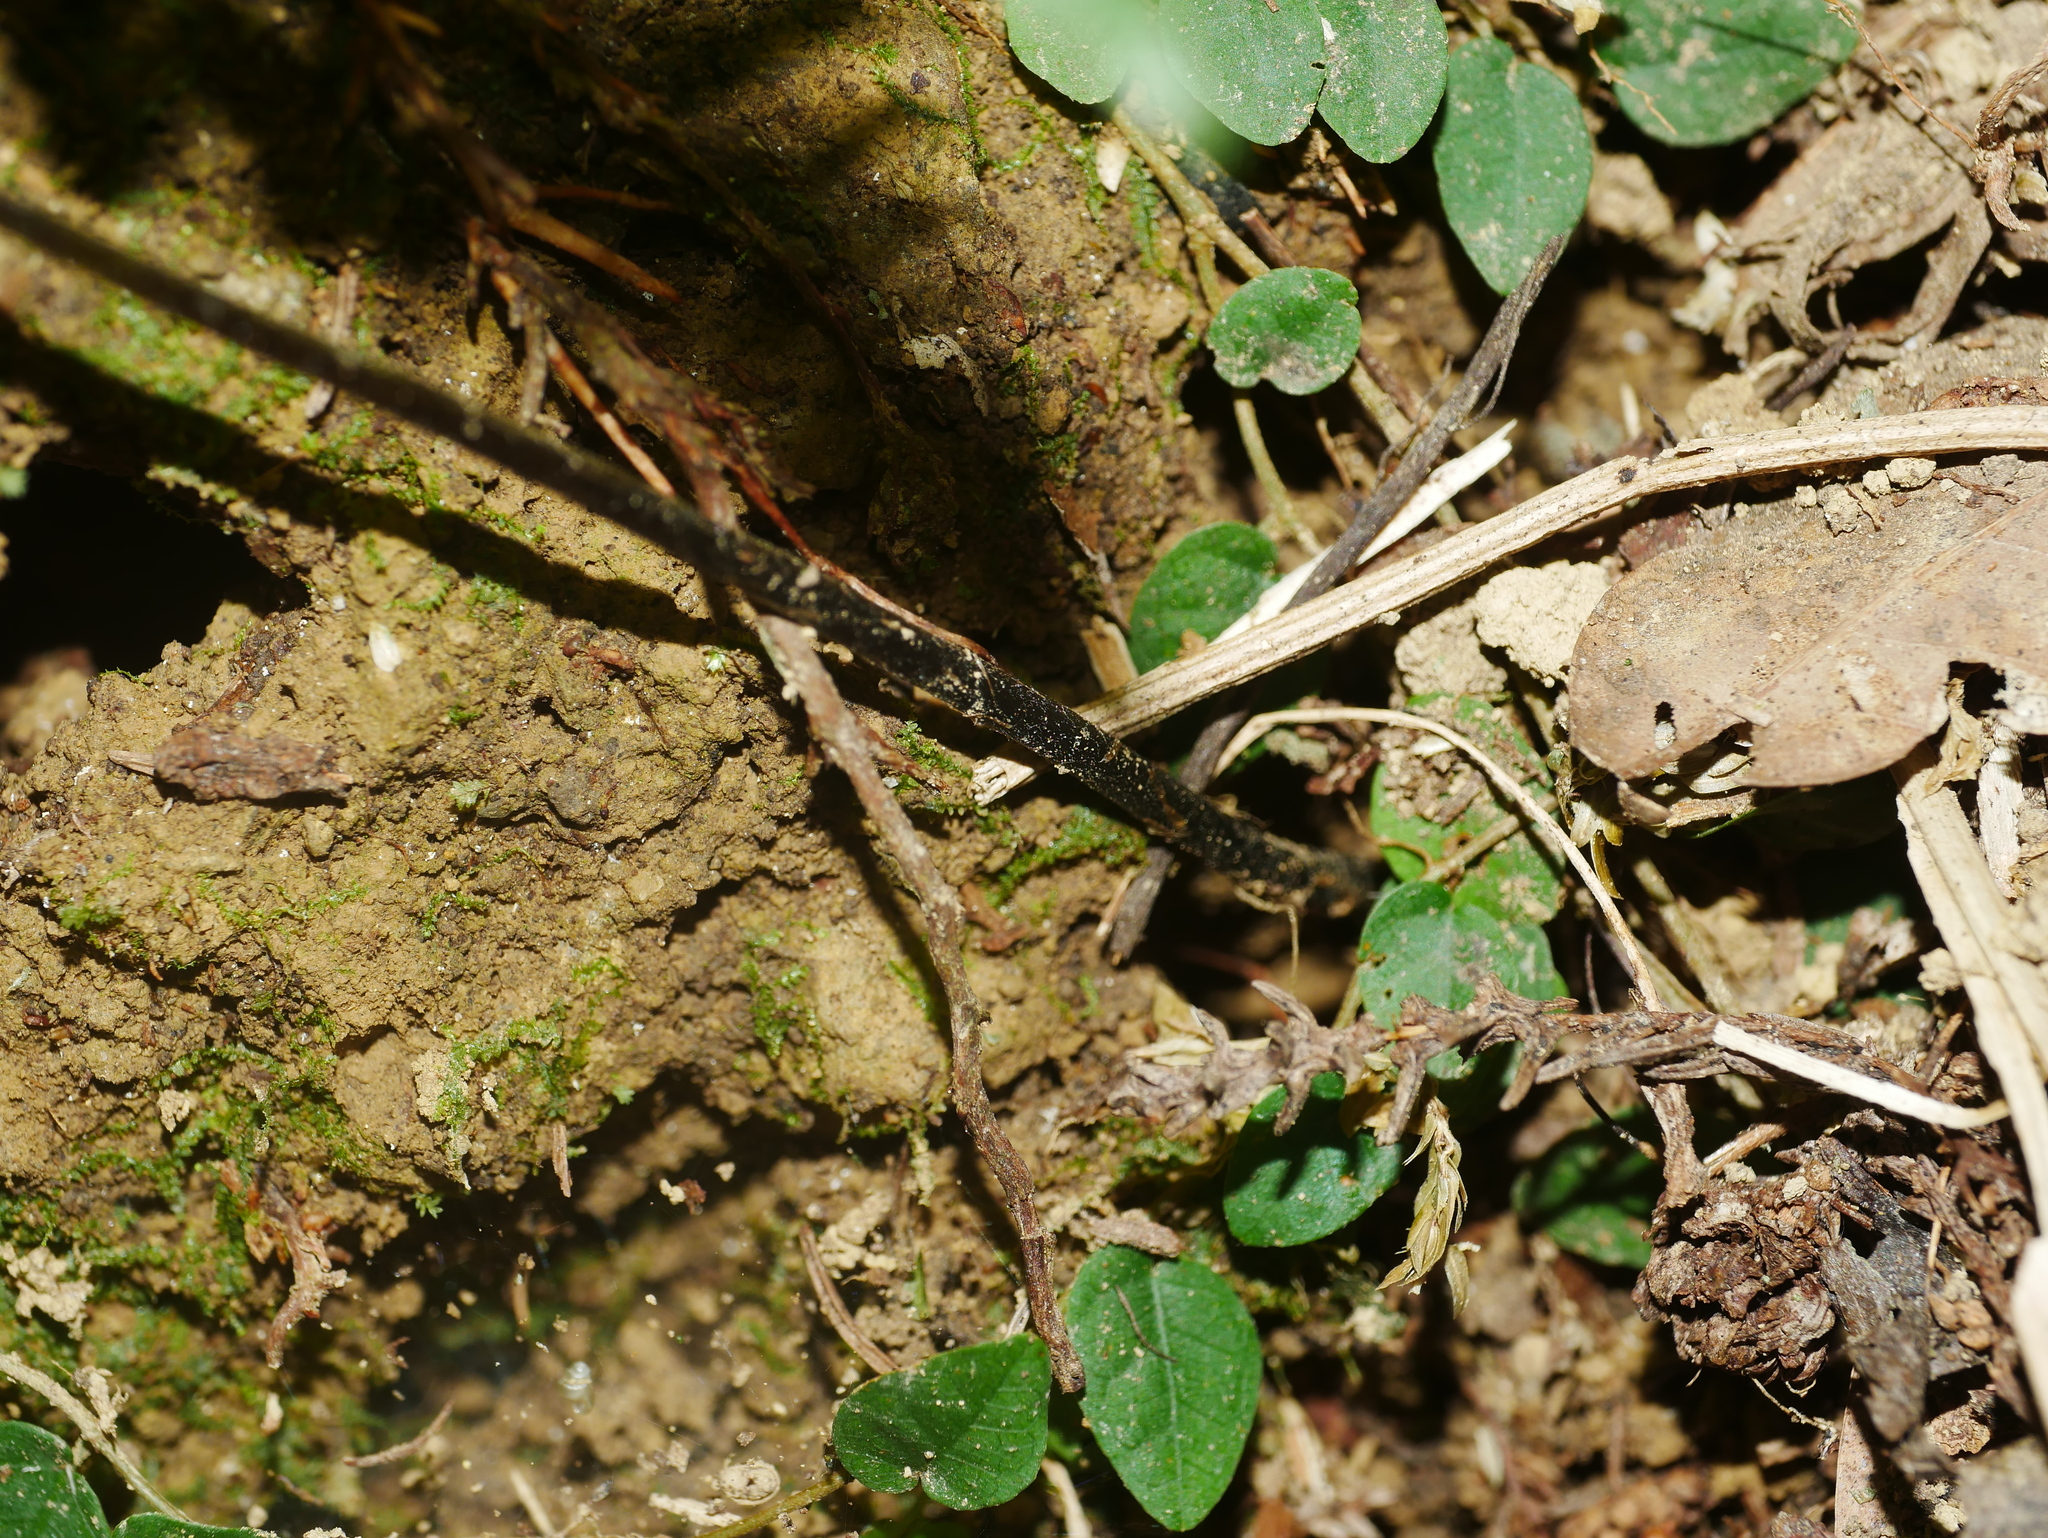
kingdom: Plantae
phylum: Tracheophyta
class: Polypodiopsida
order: Polypodiales
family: Athyriaceae
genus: Deparia
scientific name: Deparia petersenii
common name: Japanese false spleenwort
